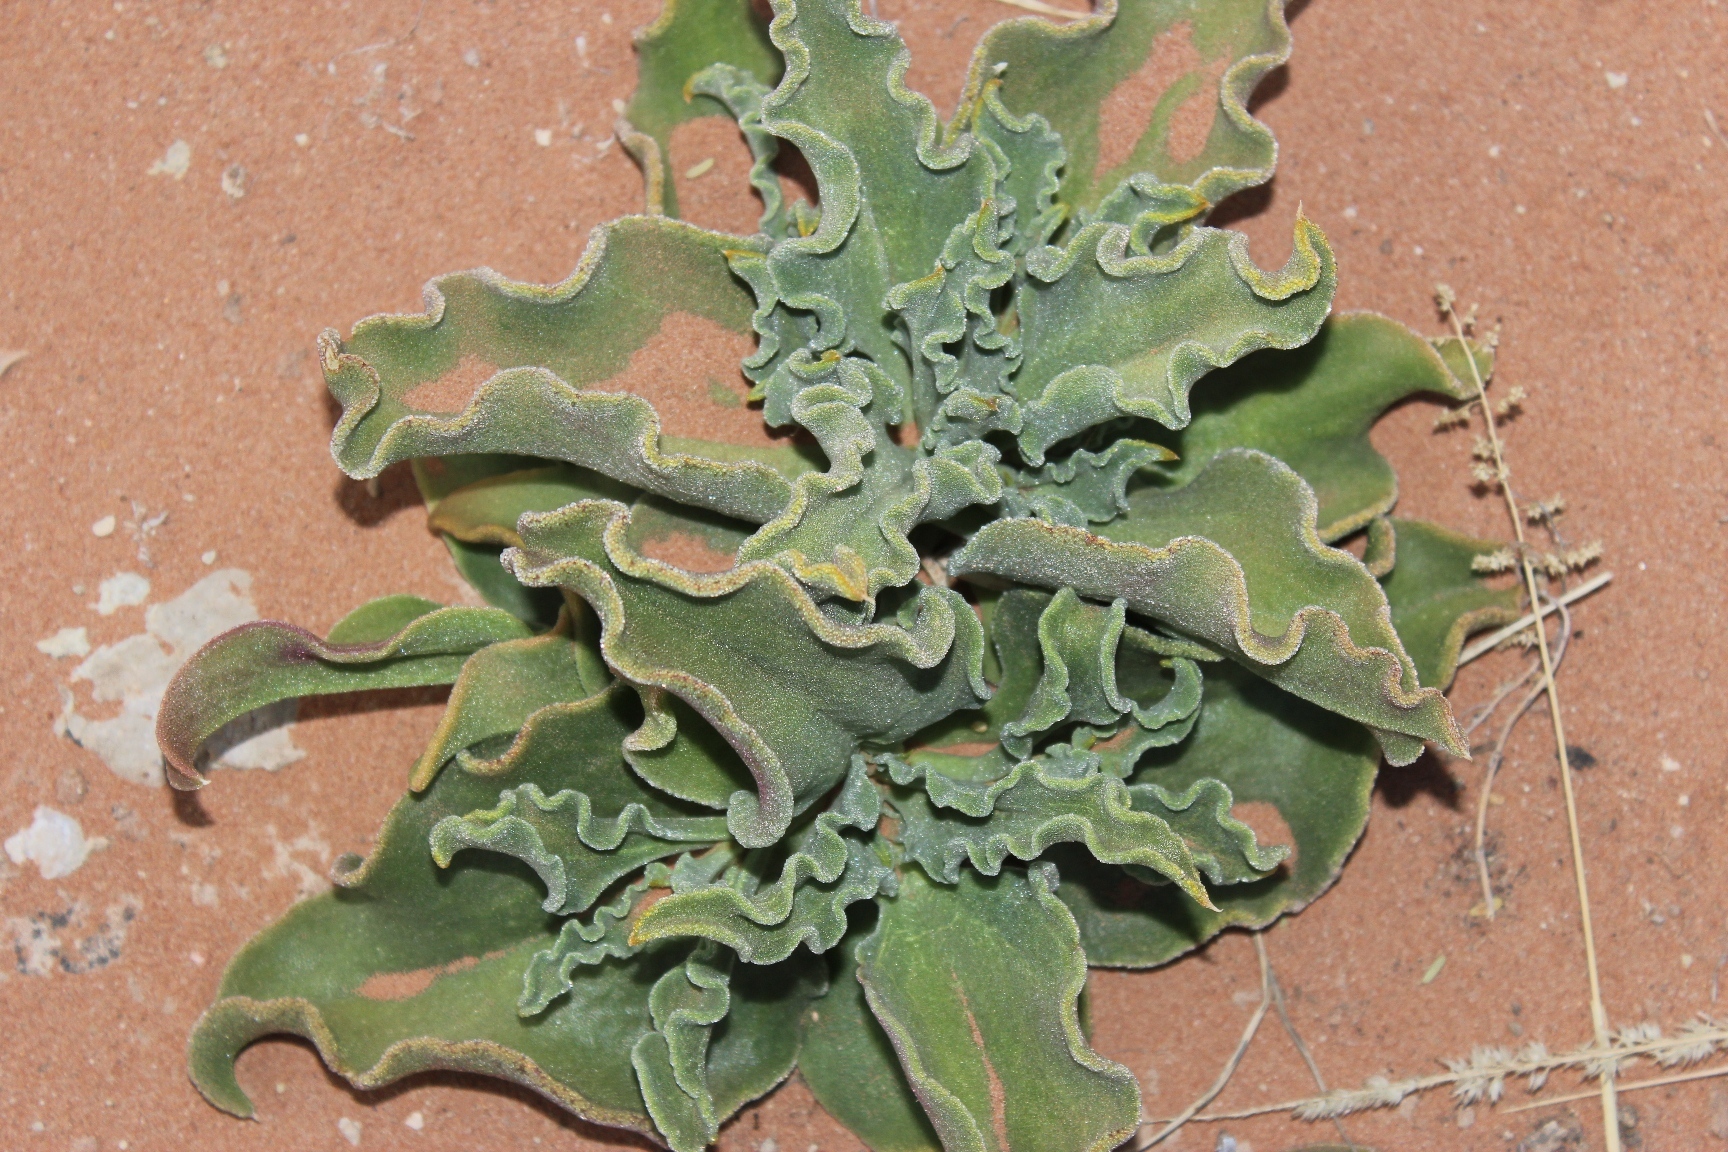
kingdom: Plantae
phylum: Tracheophyta
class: Magnoliopsida
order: Caryophyllales
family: Aizoaceae
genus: Mesembryanthemum
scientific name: Mesembryanthemum guerichianum
